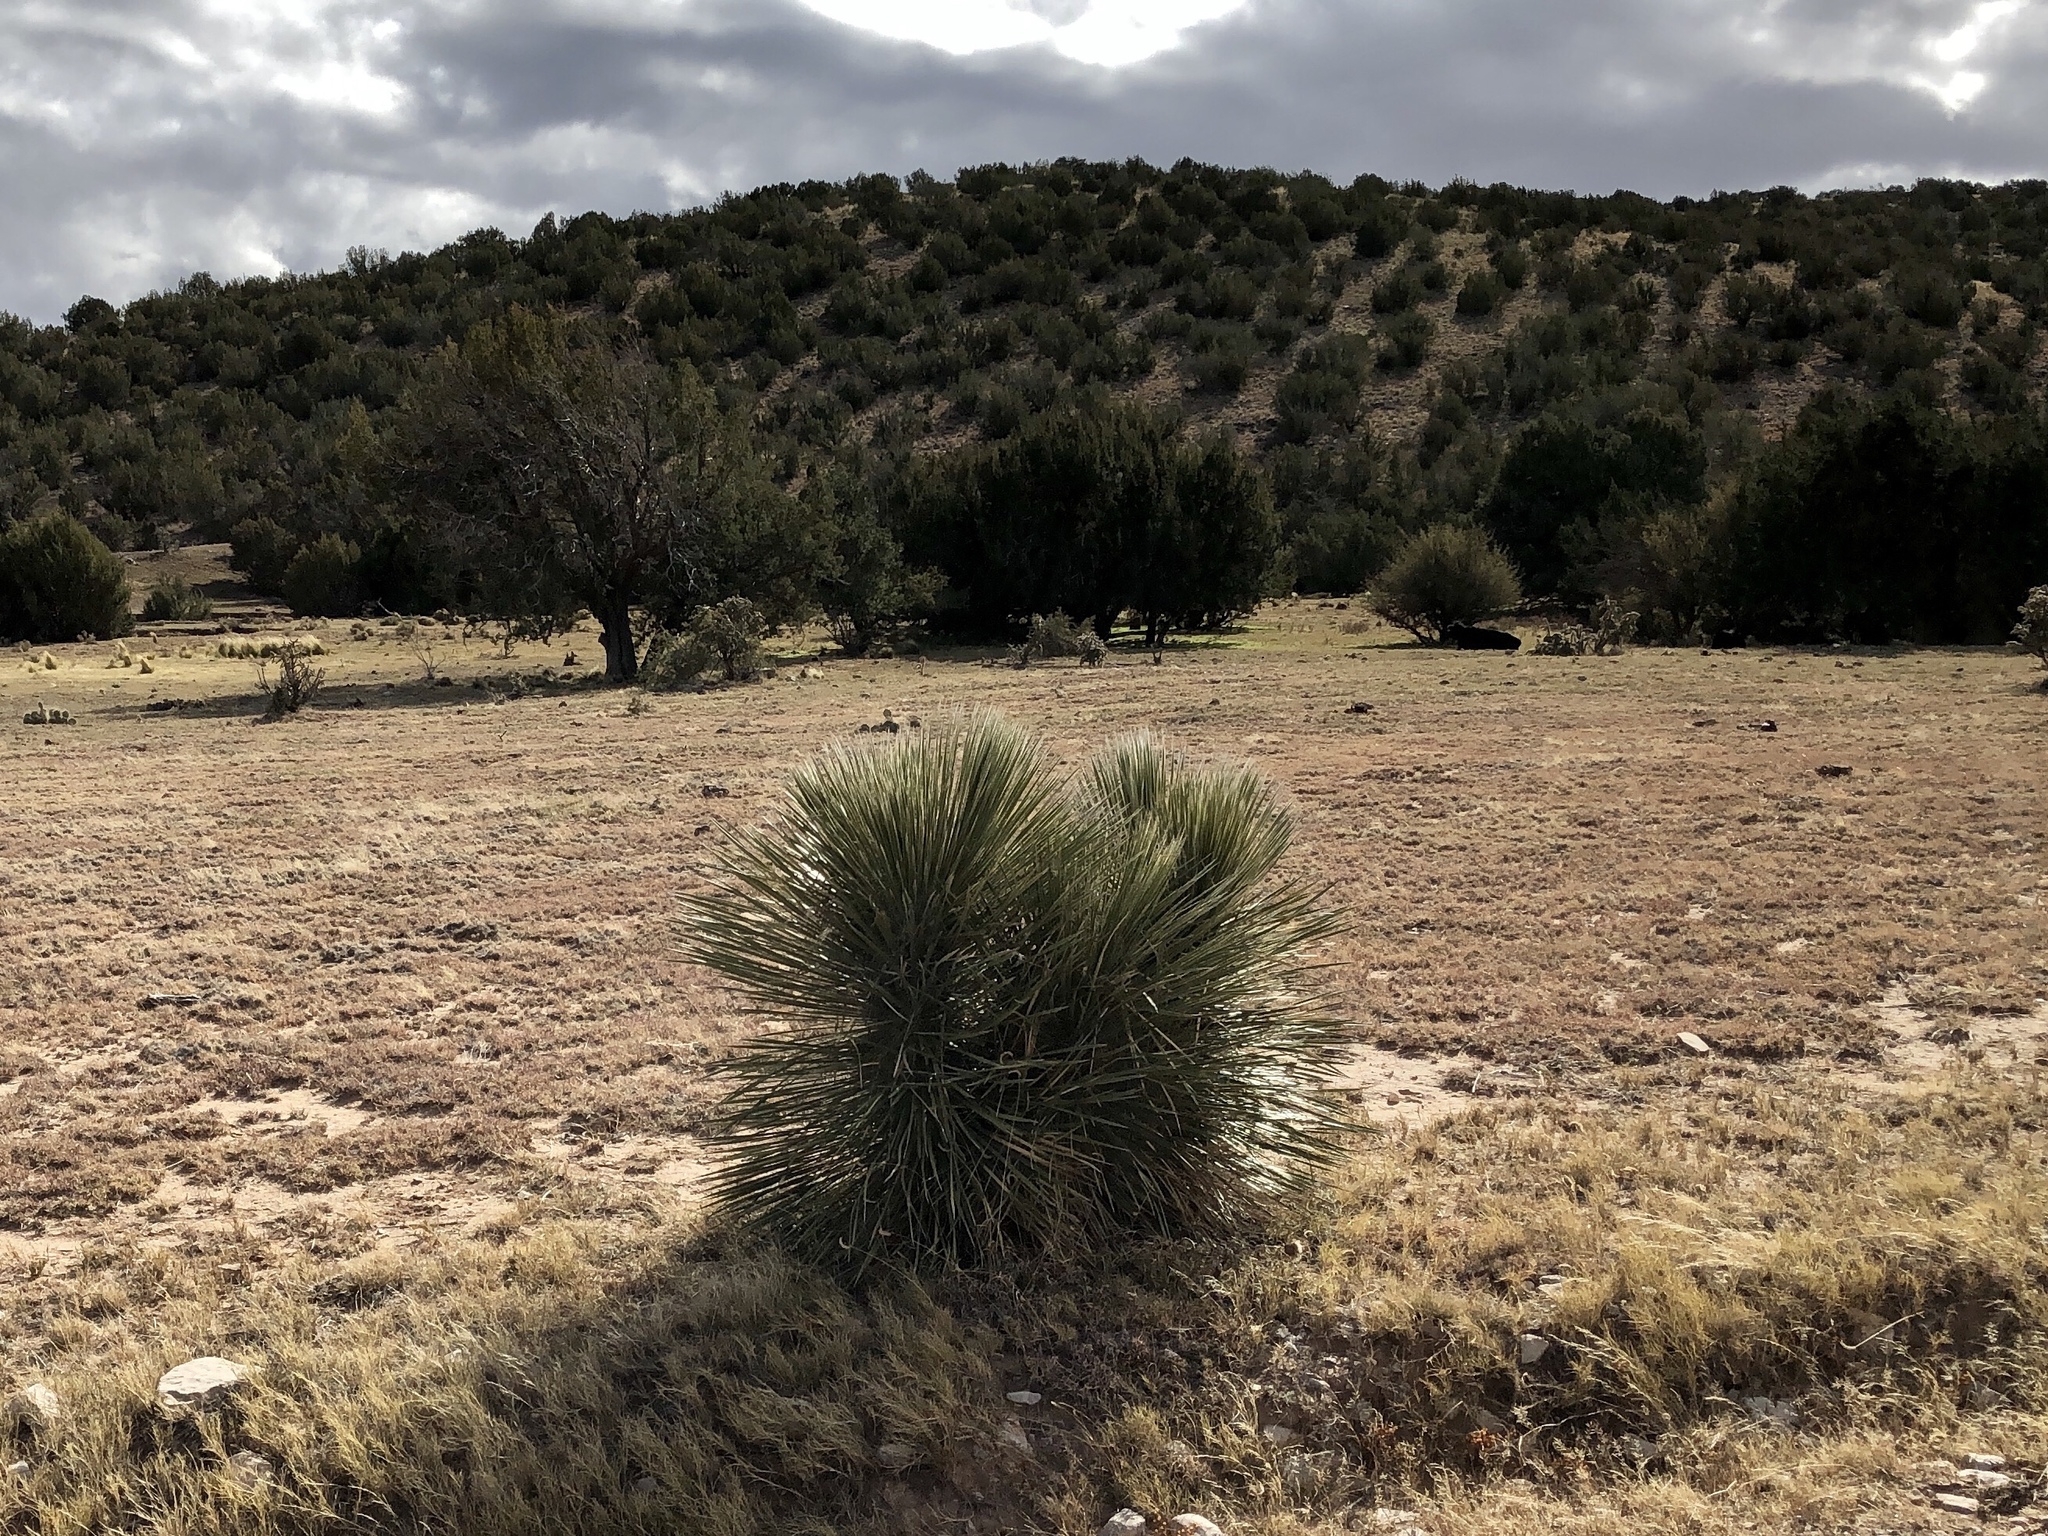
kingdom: Plantae
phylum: Tracheophyta
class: Liliopsida
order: Asparagales
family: Asparagaceae
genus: Yucca
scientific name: Yucca elata
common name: Palmella
